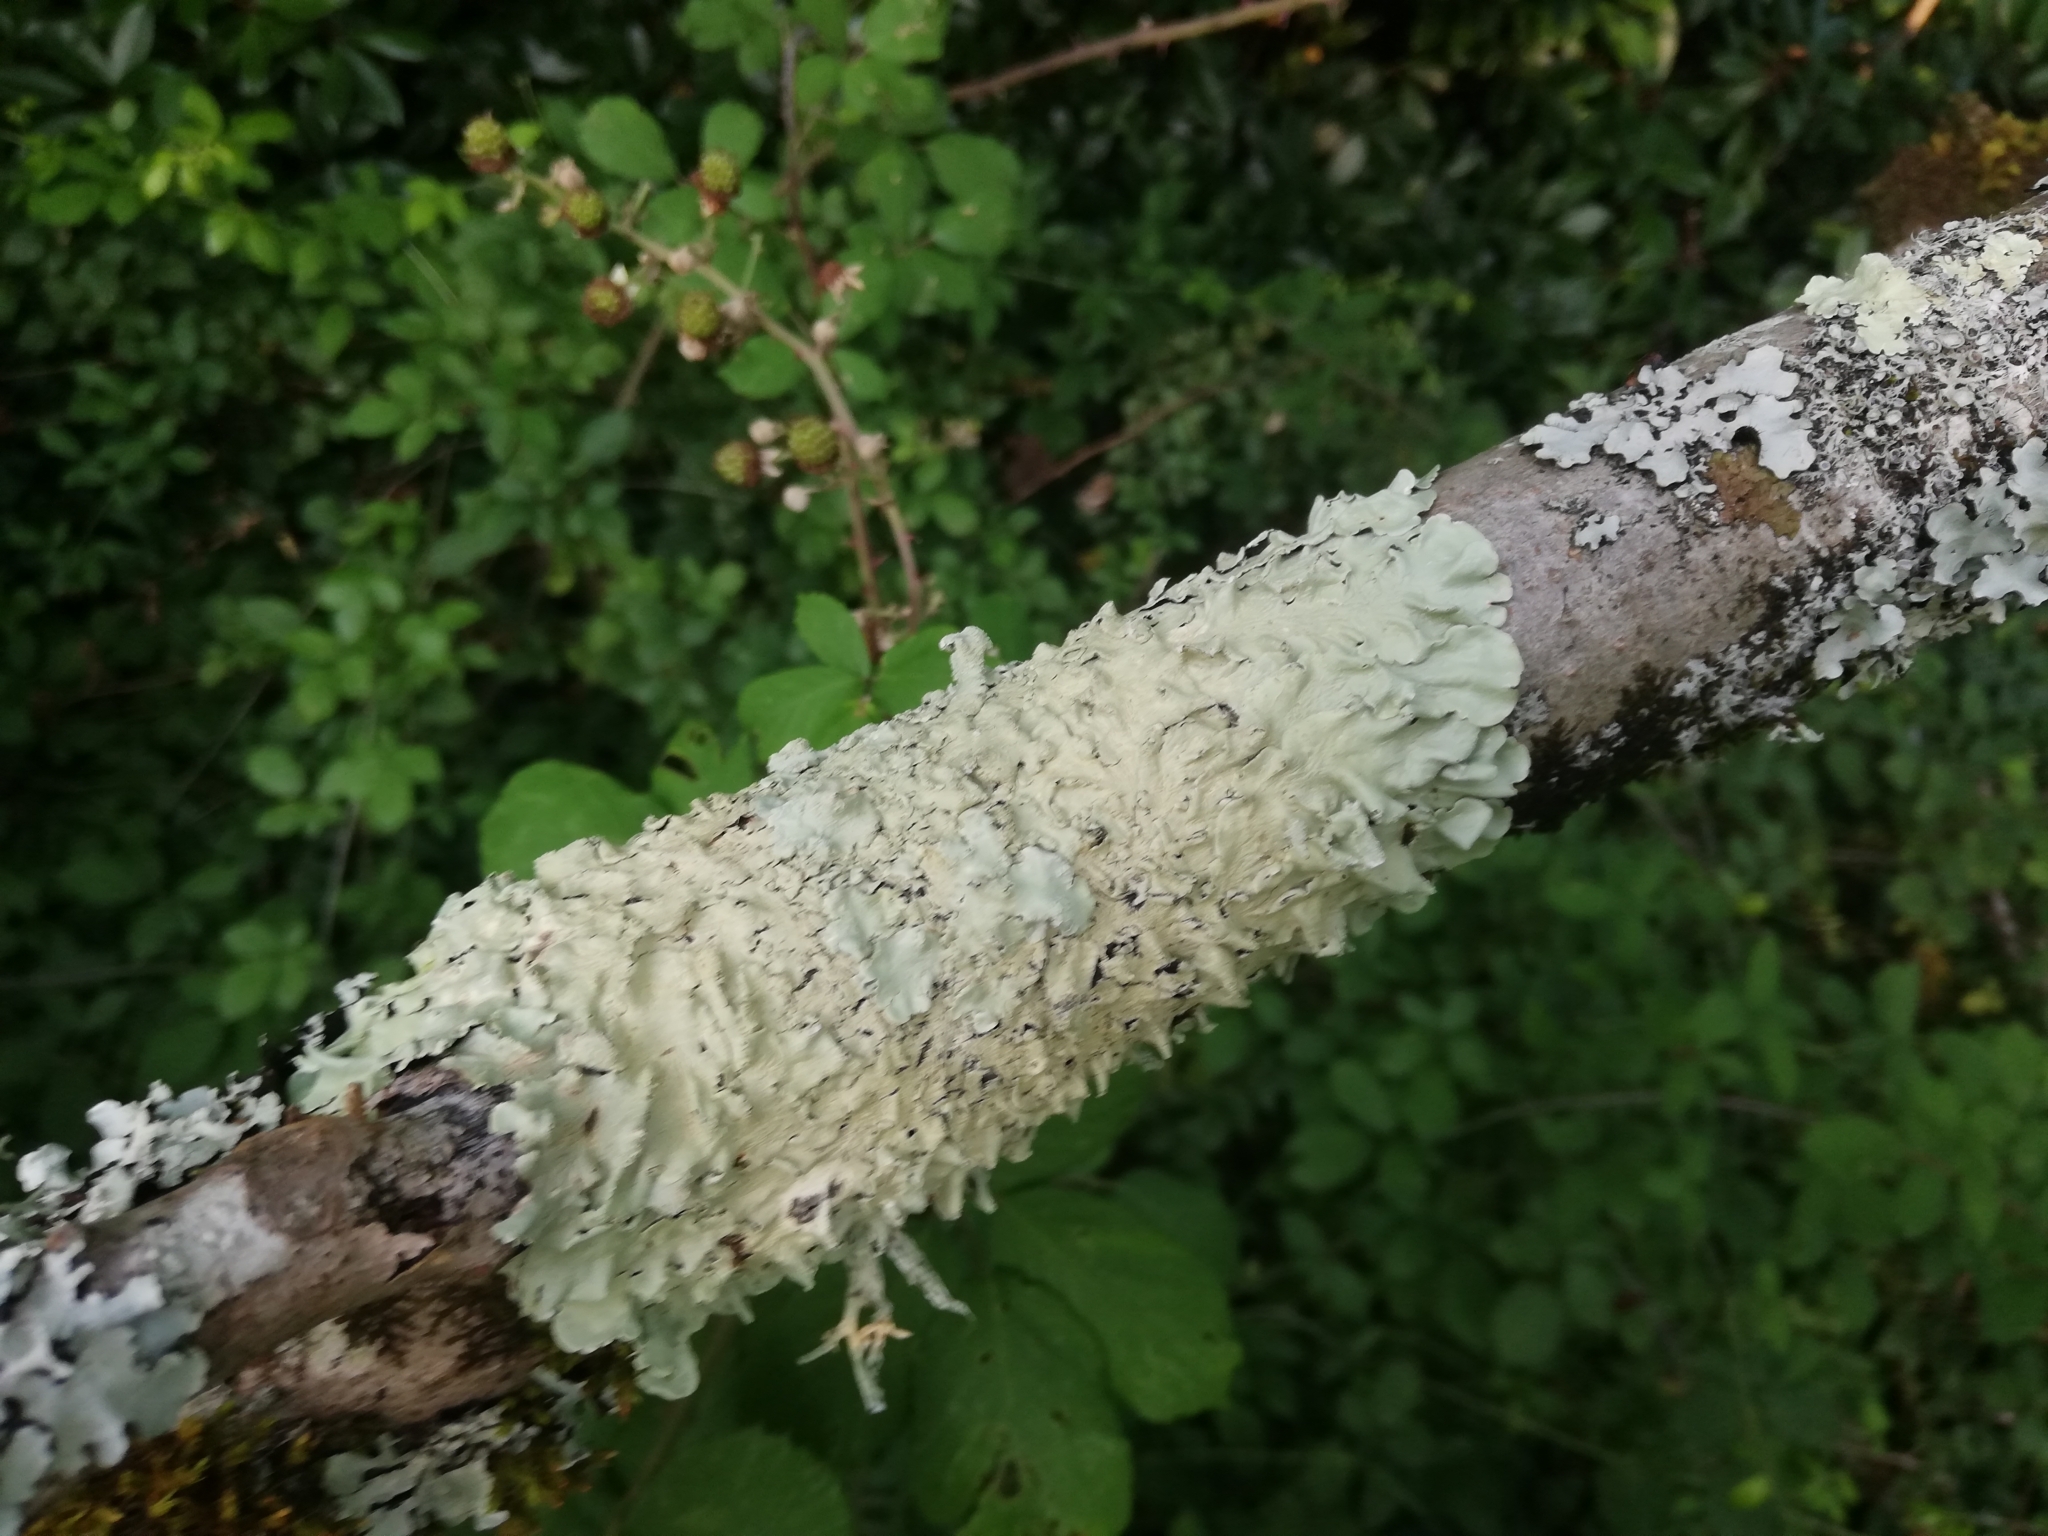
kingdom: Fungi
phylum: Ascomycota
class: Lecanoromycetes
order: Lecanorales
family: Parmeliaceae
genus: Flavoparmelia
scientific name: Flavoparmelia caperata
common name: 40-mile per hour lichen
